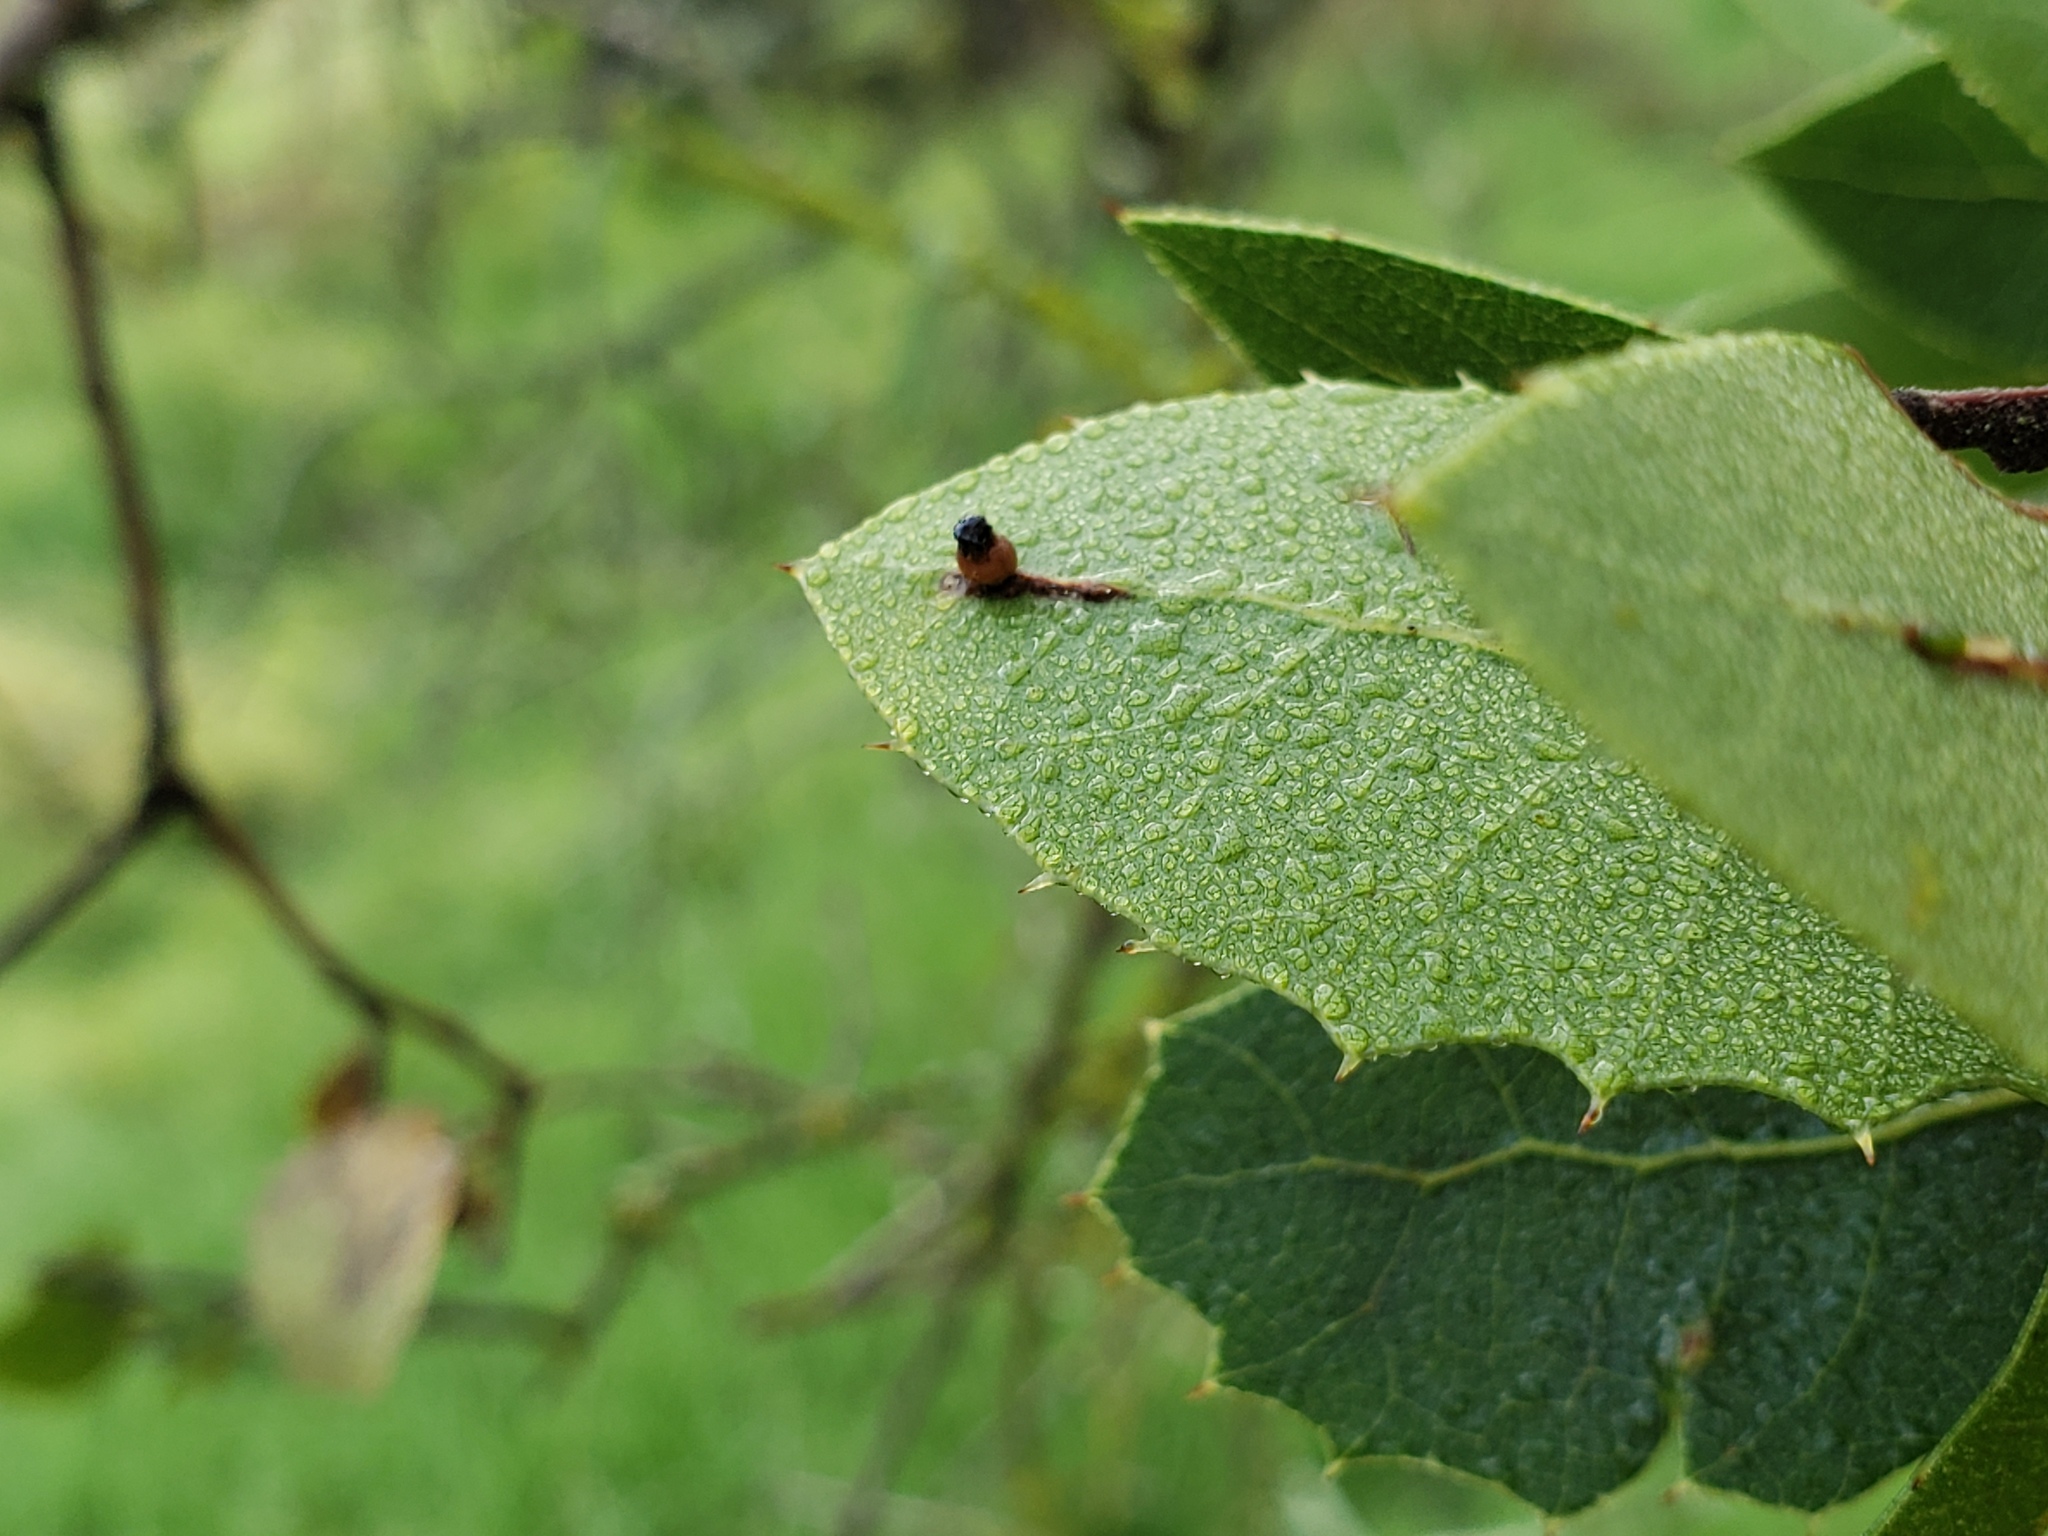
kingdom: Animalia
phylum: Arthropoda
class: Insecta
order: Hymenoptera
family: Cynipidae
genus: Callirhytis
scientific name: Callirhytis
